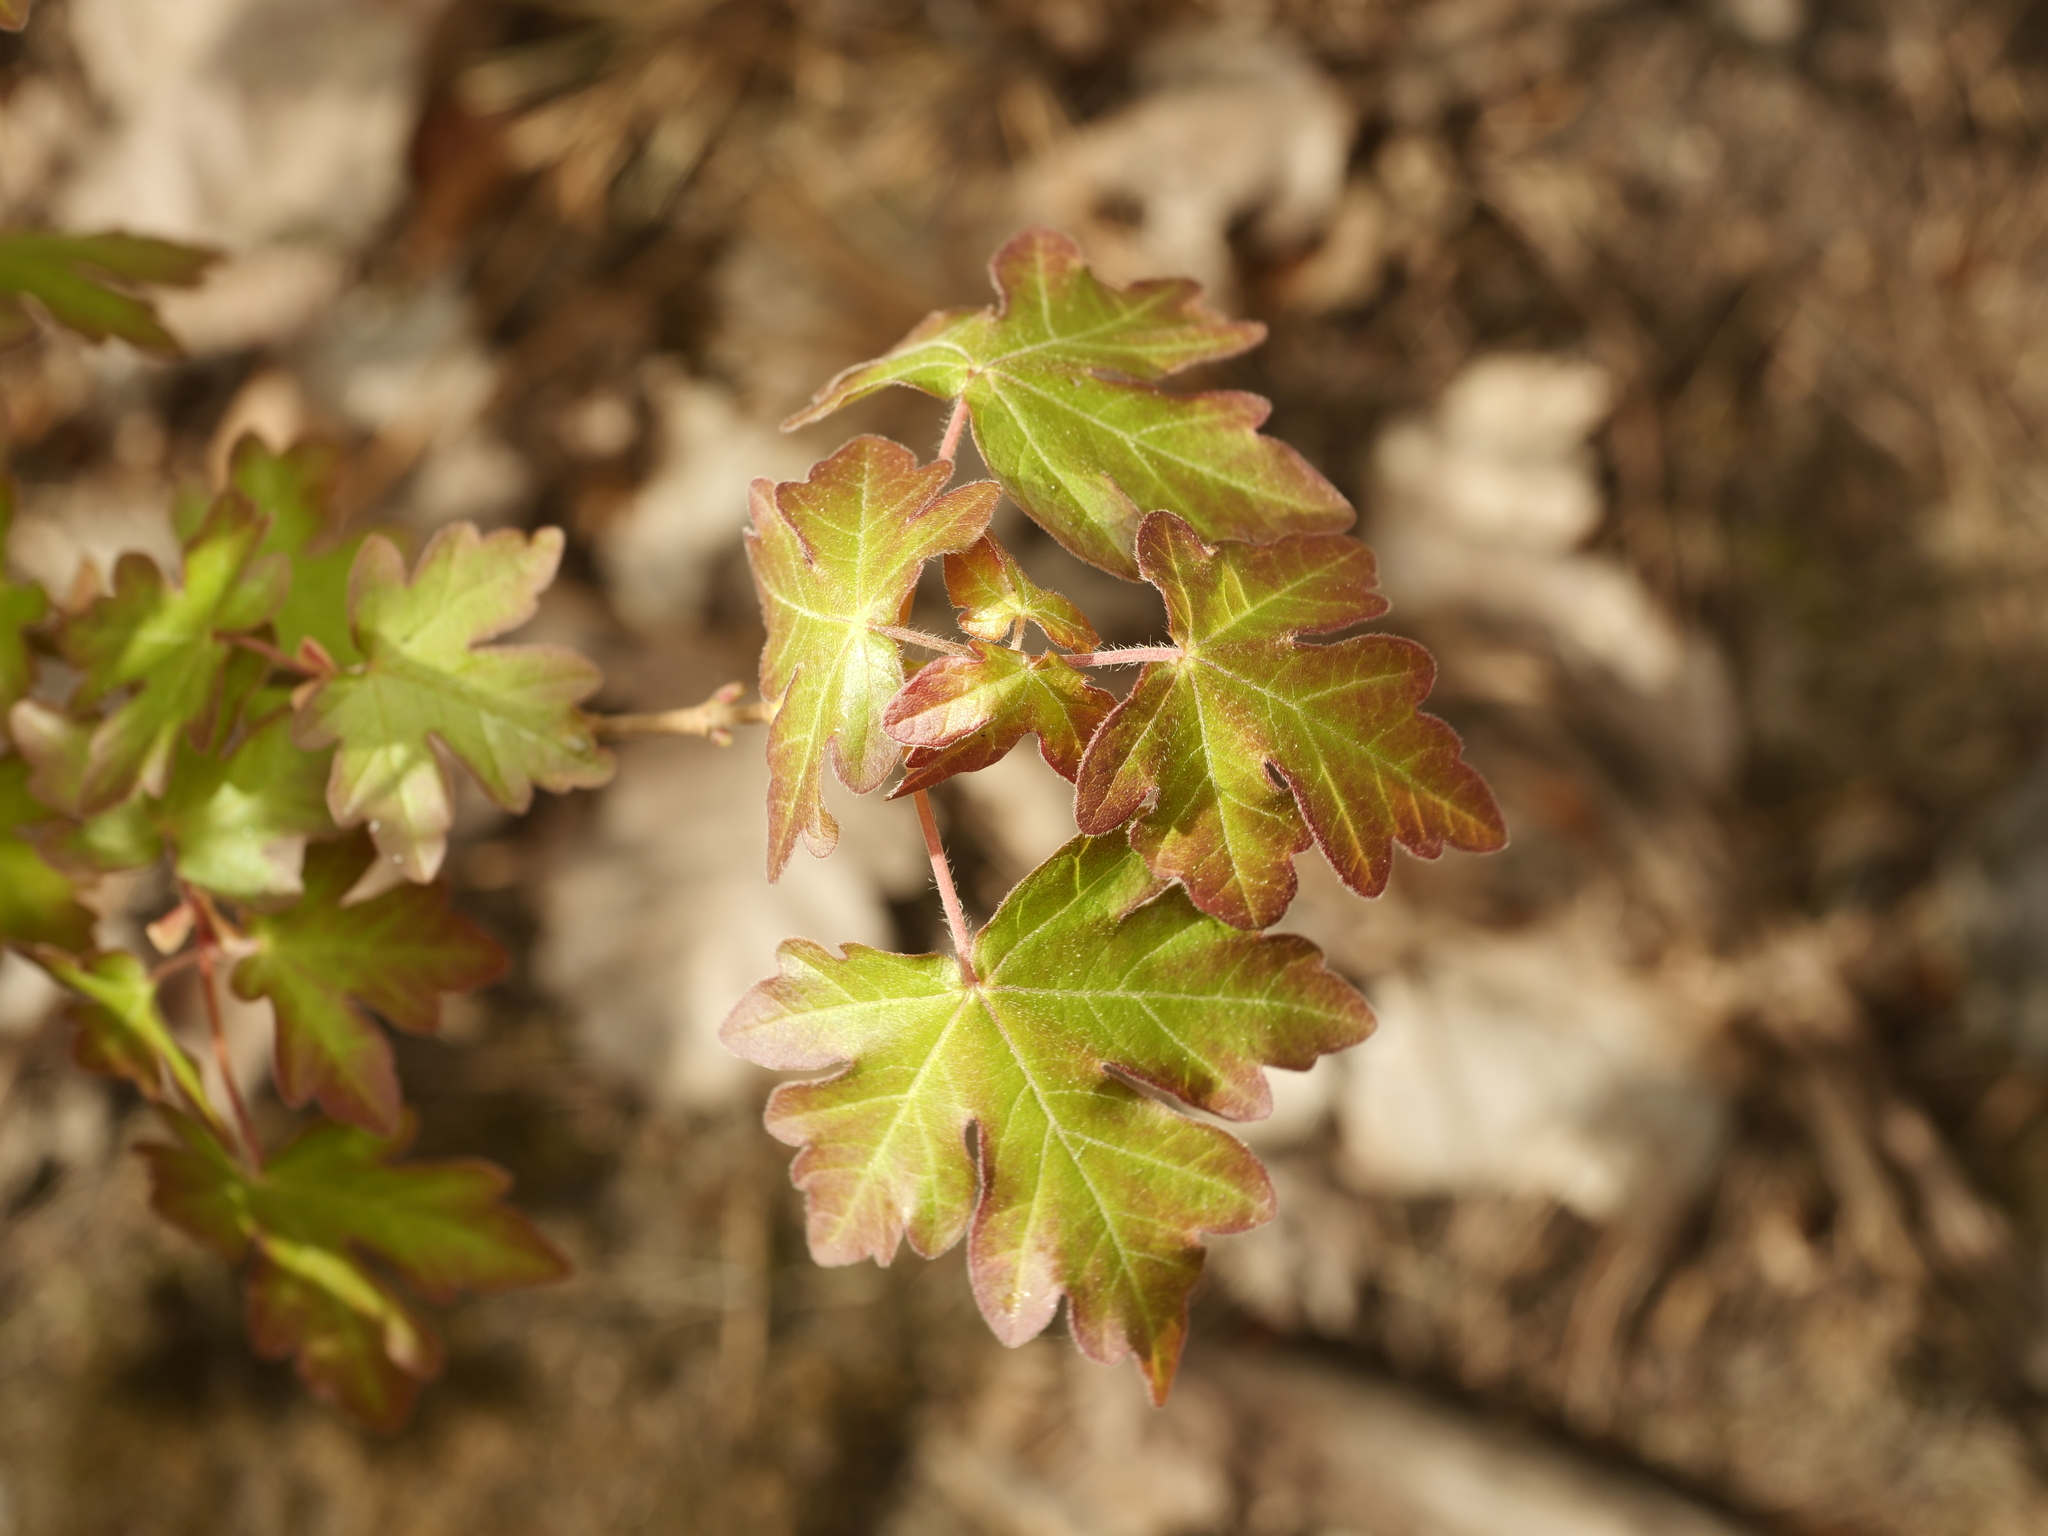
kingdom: Plantae
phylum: Tracheophyta
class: Magnoliopsida
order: Sapindales
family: Sapindaceae
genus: Acer
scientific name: Acer campestre
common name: Field maple
